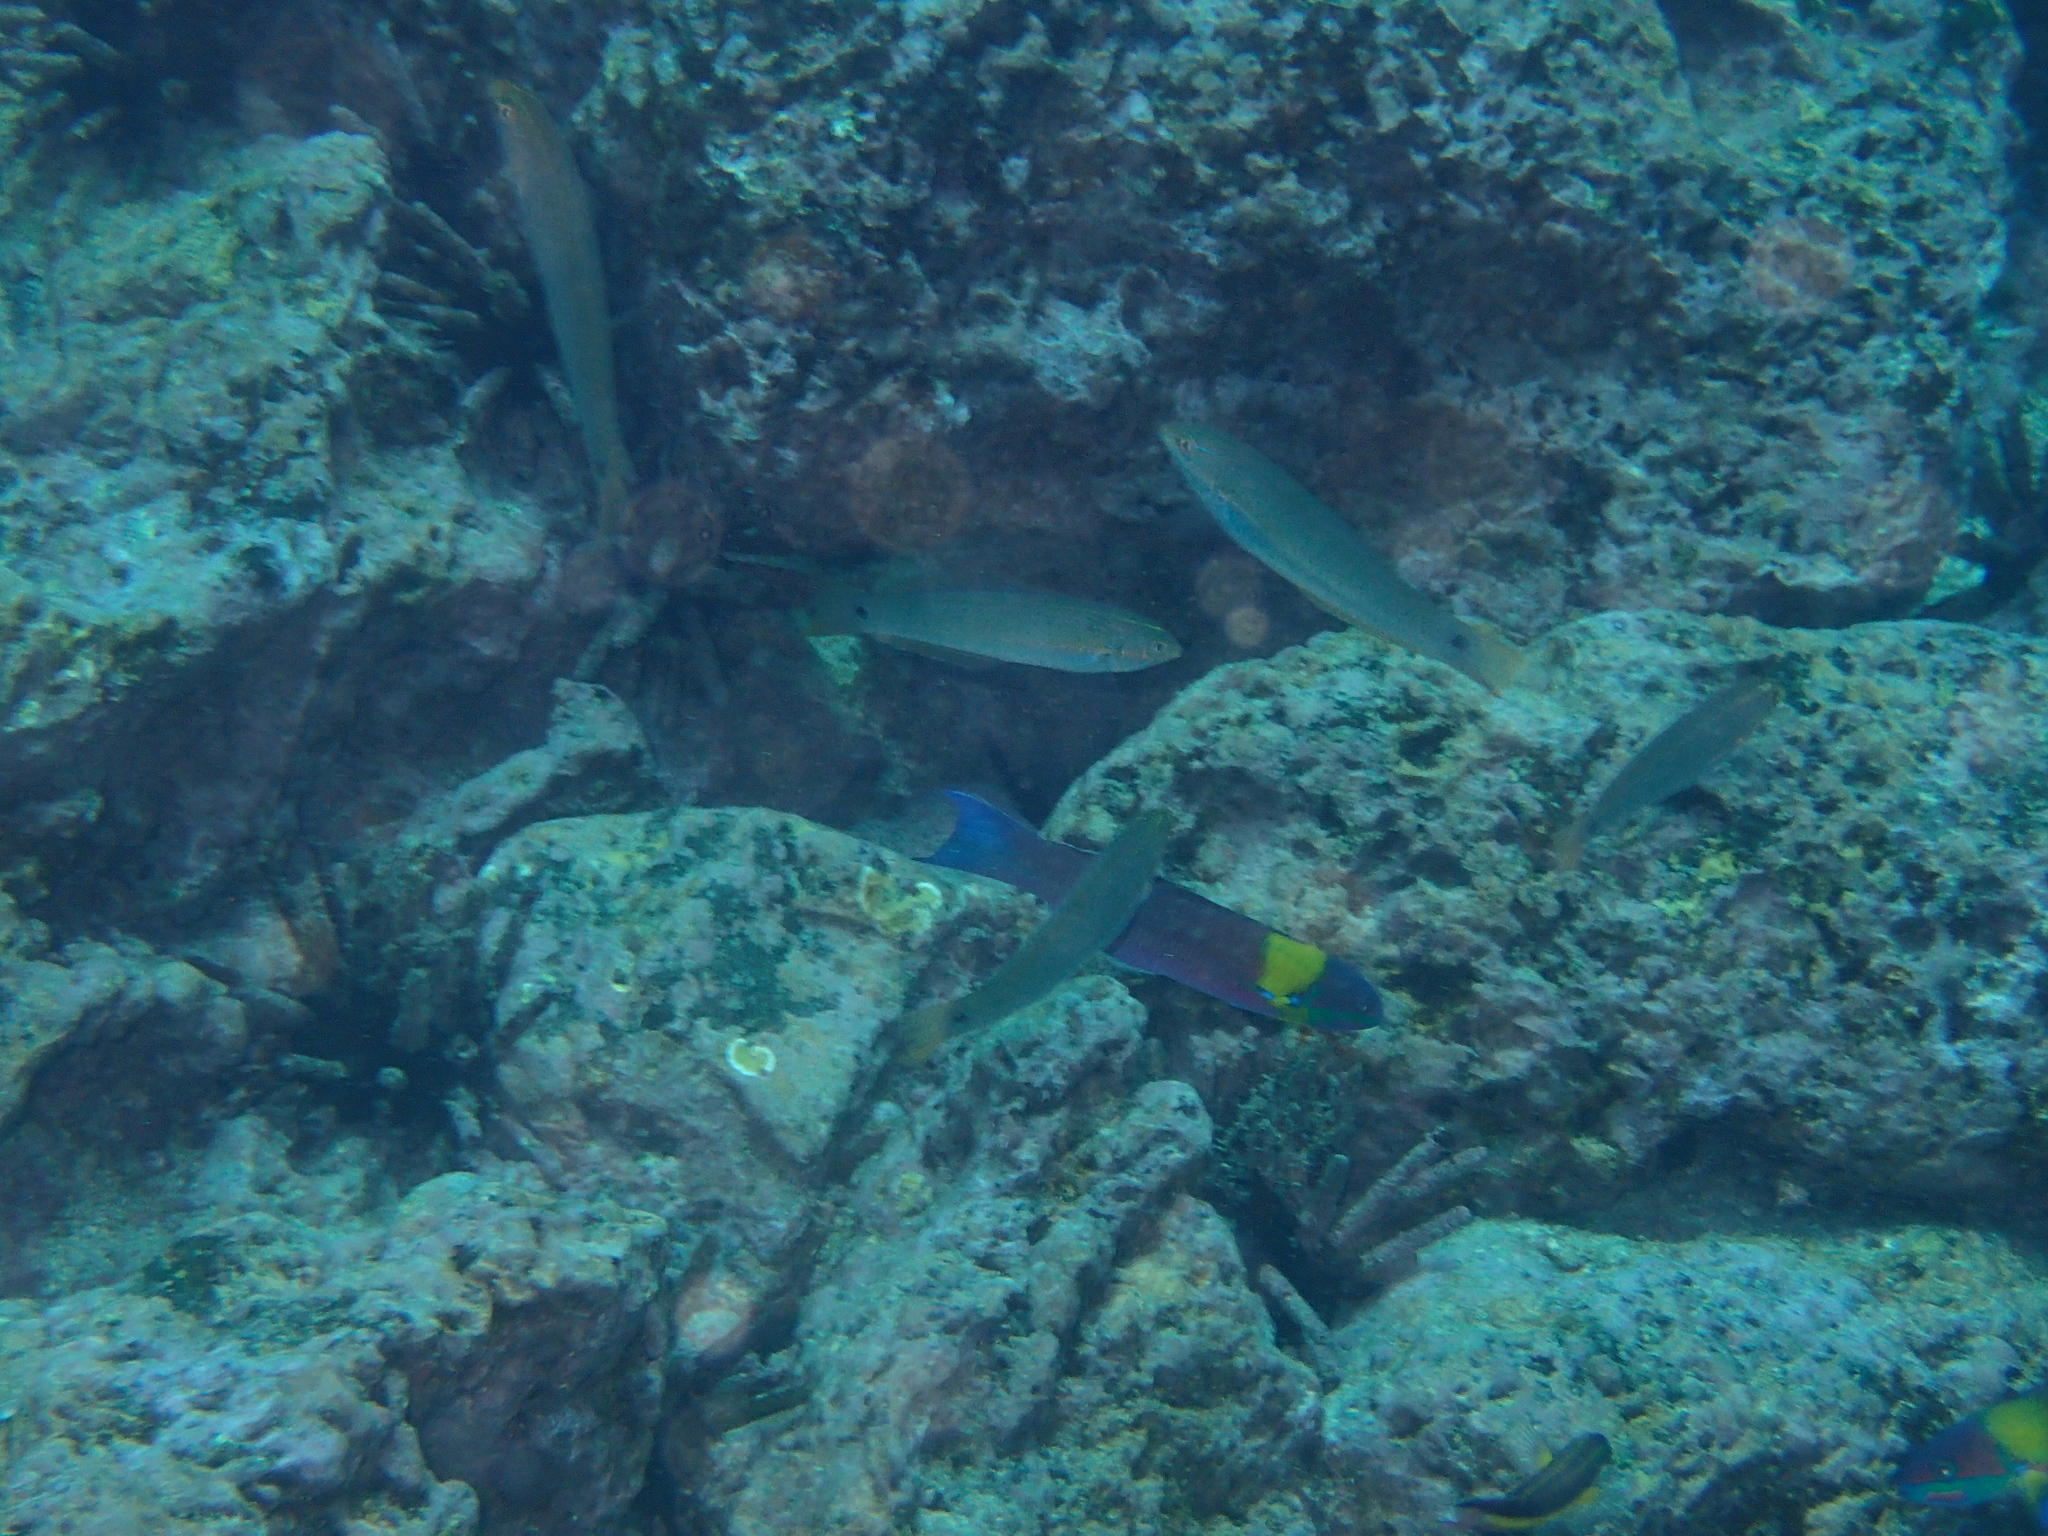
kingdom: Animalia
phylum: Chordata
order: Perciformes
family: Labridae
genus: Thalassoma
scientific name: Thalassoma lucasanum
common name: Cortez rainbow wrasse
